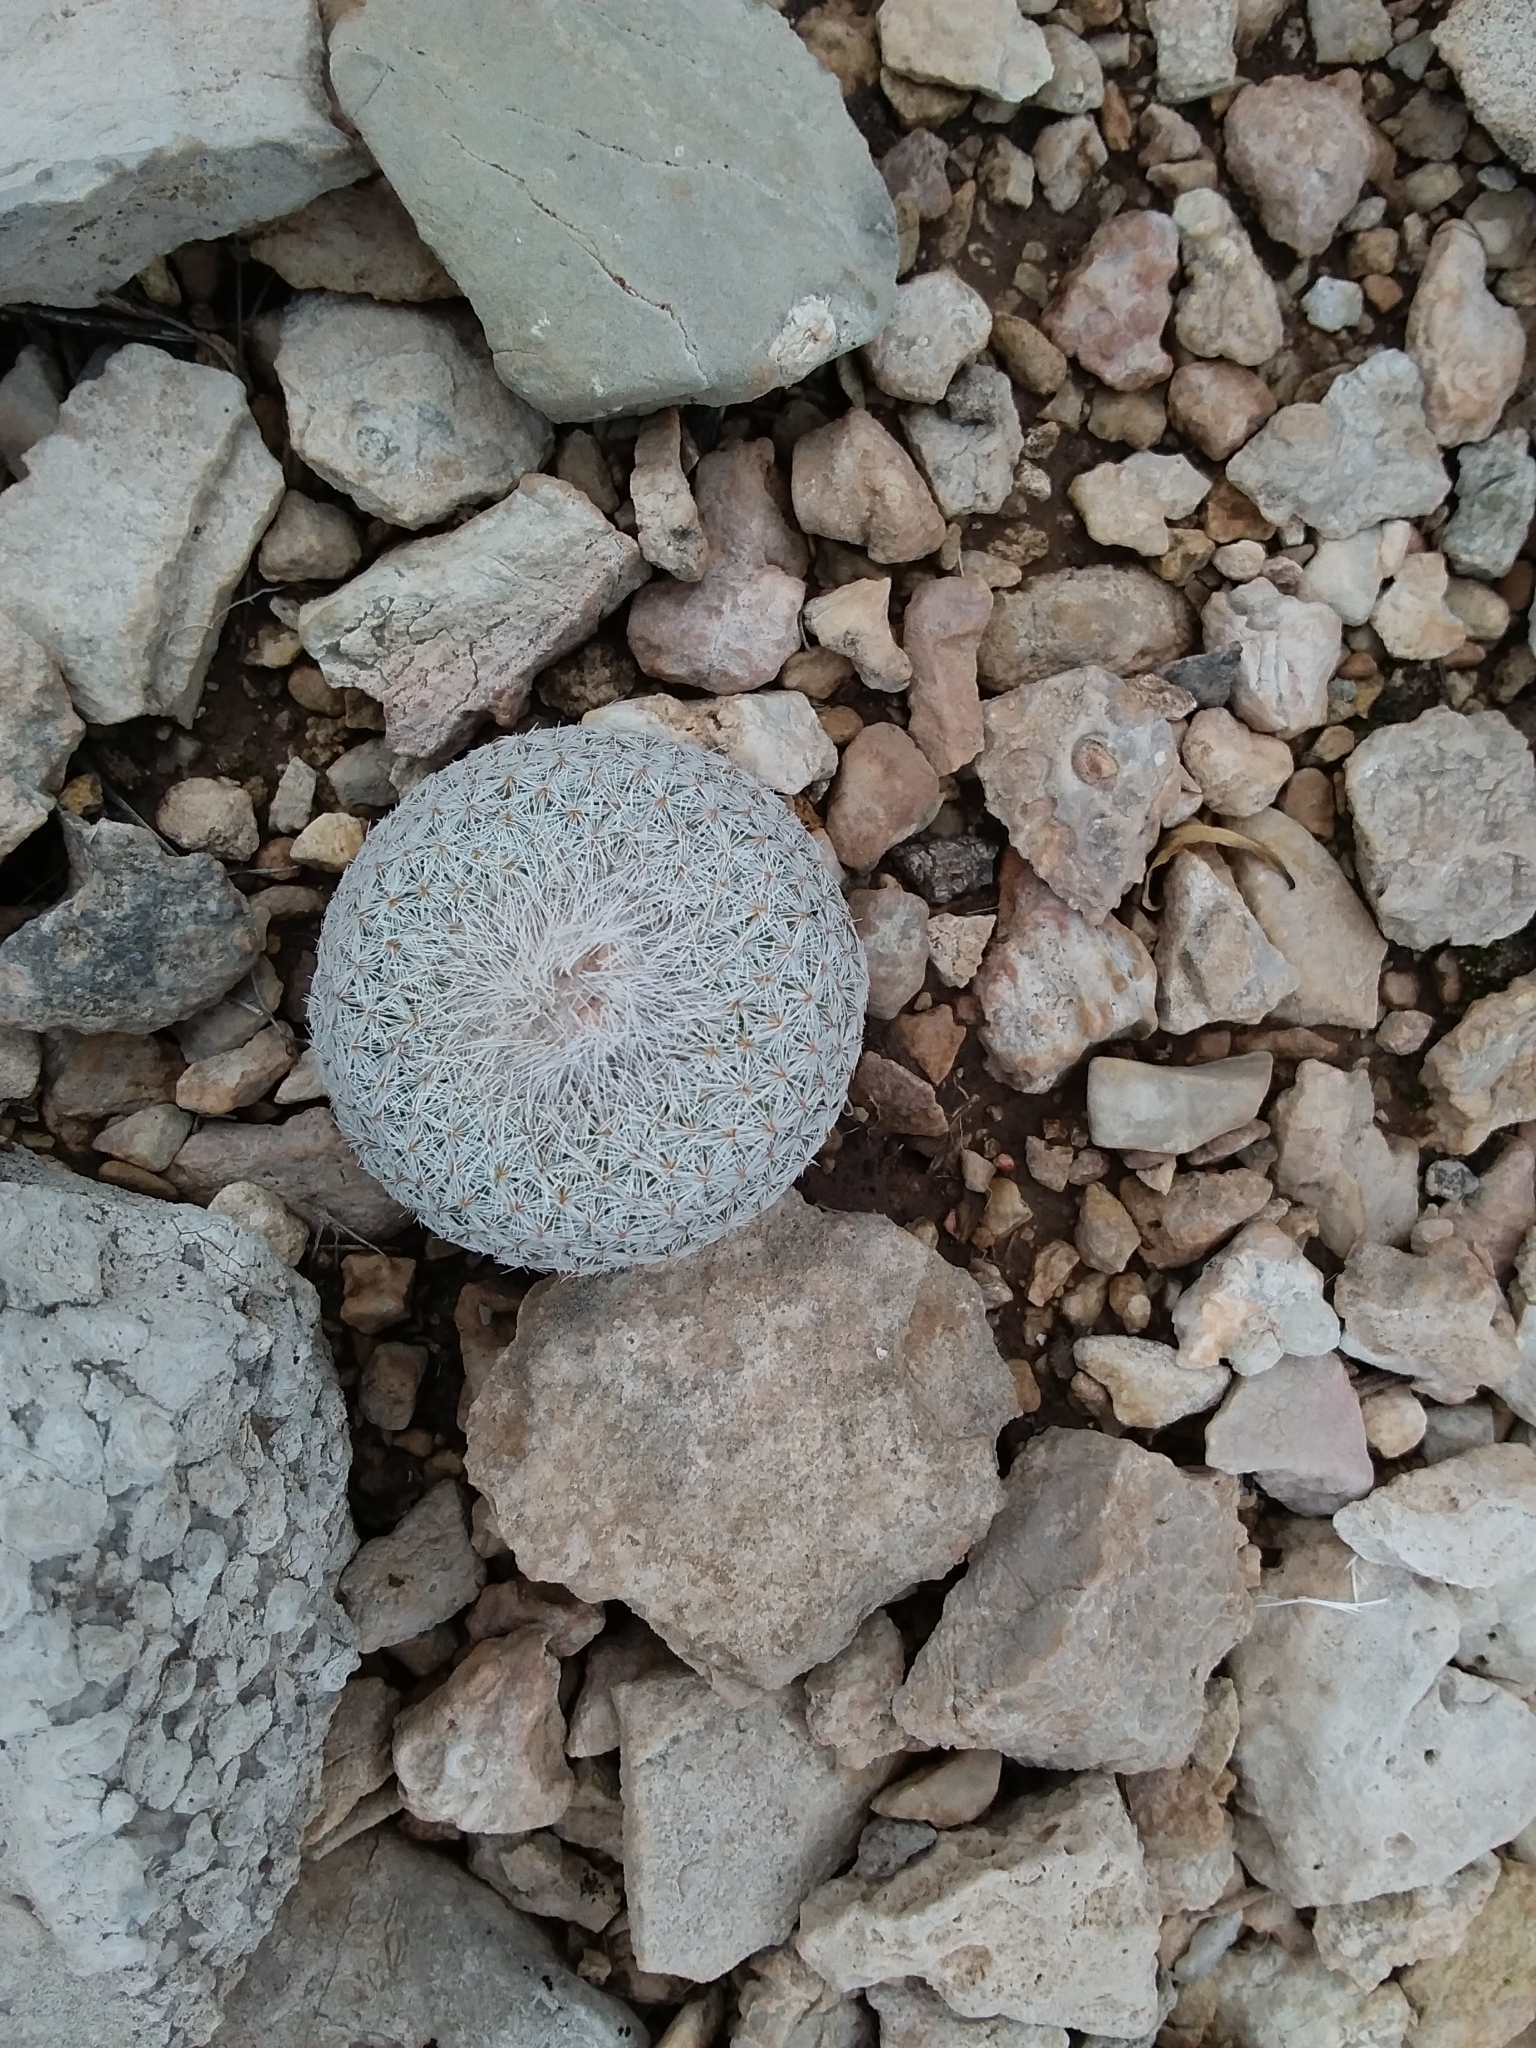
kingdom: Plantae
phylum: Tracheophyta
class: Magnoliopsida
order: Caryophyllales
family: Cactaceae
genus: Epithelantha
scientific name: Epithelantha micromeris
